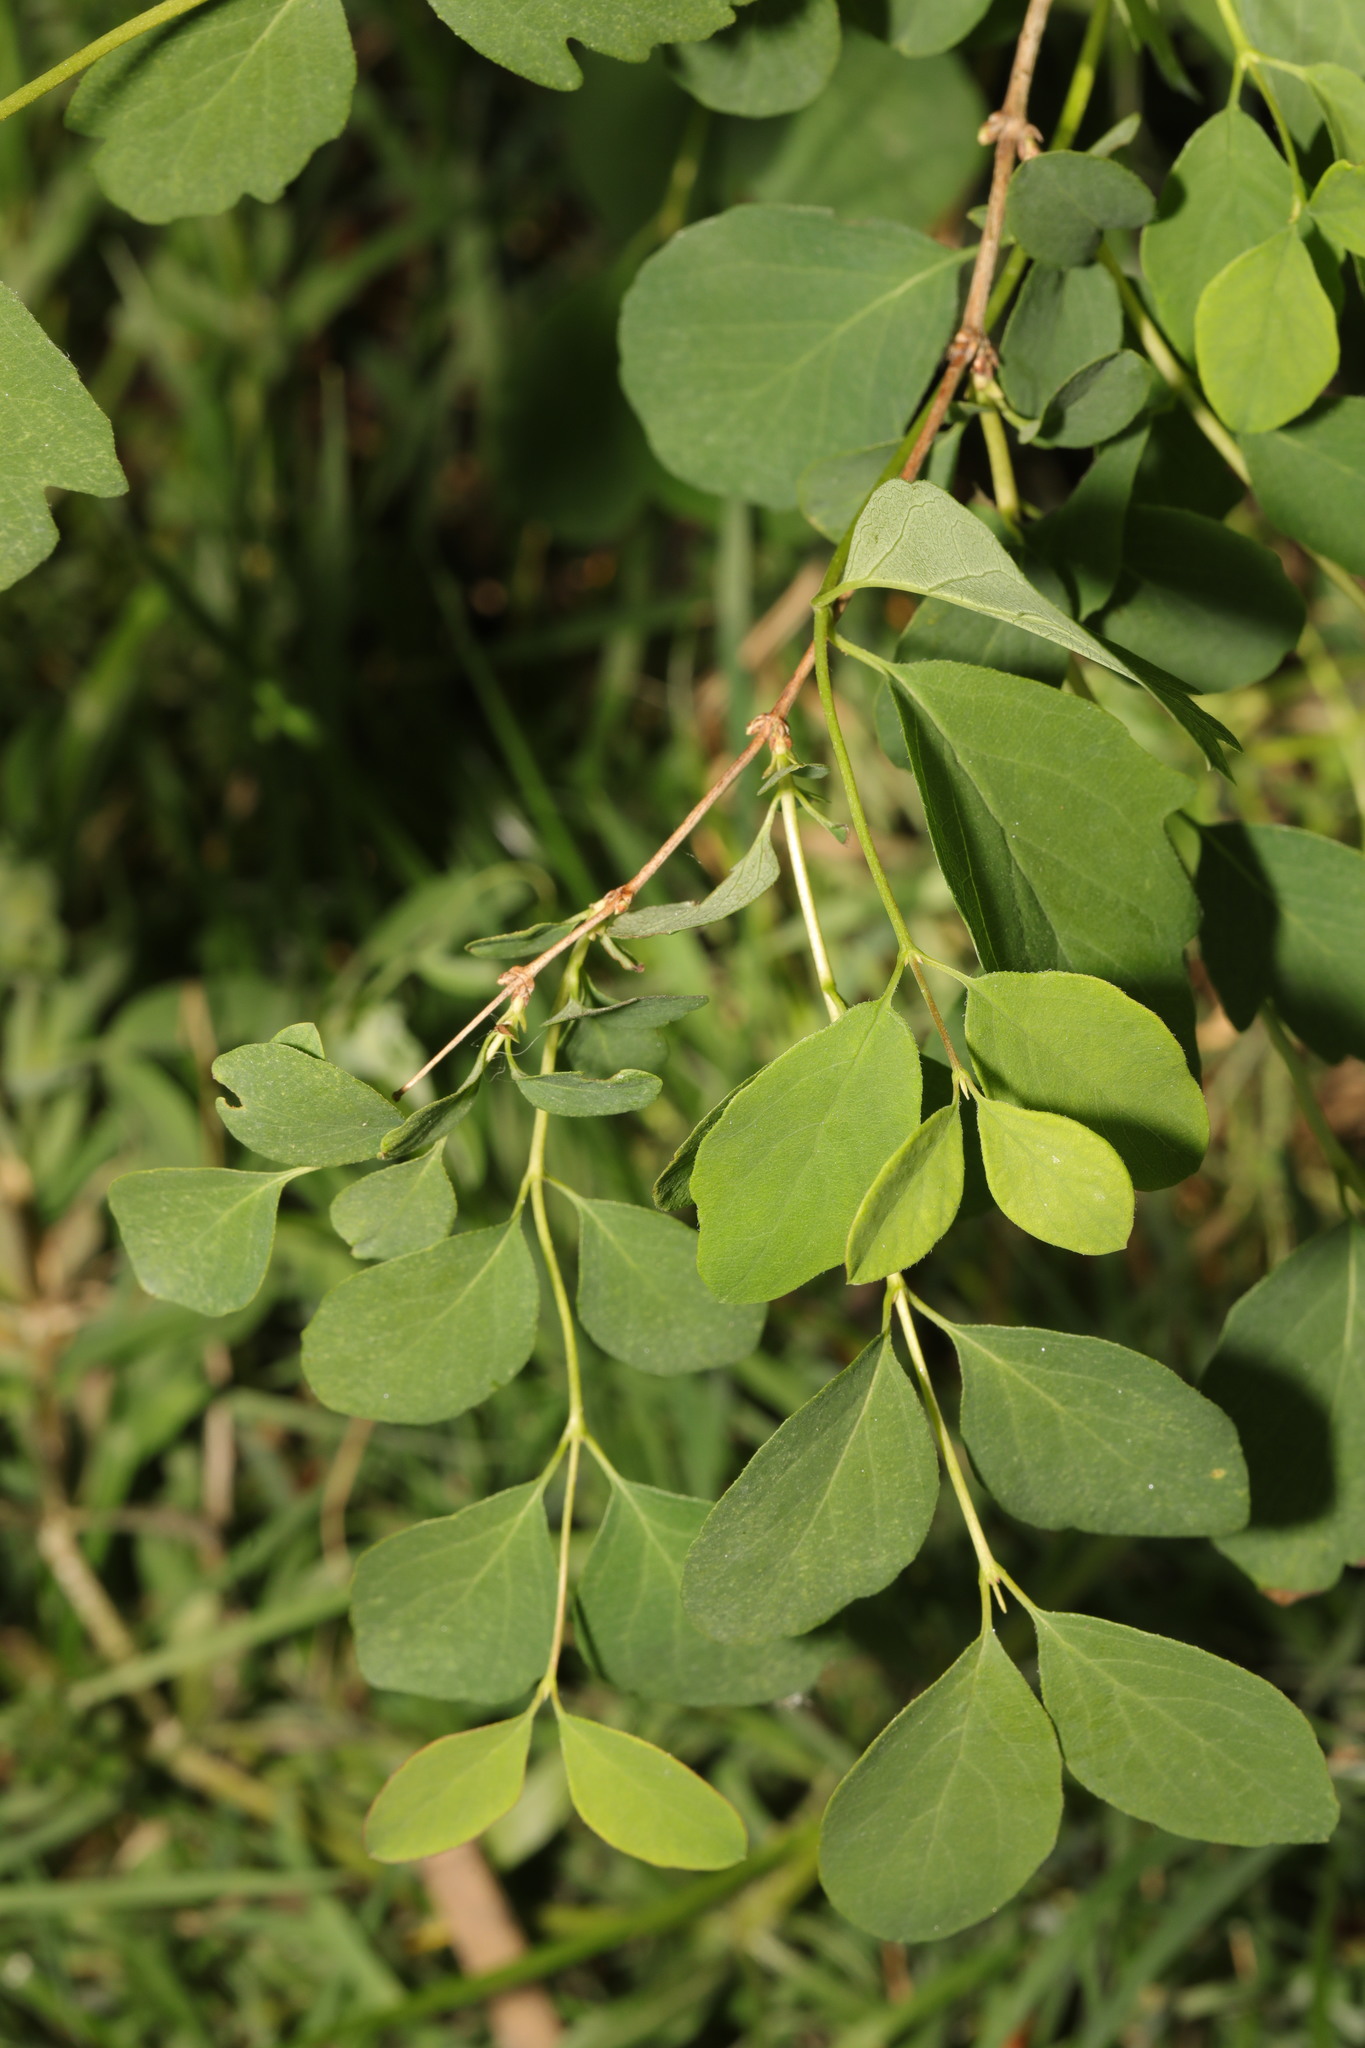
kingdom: Plantae
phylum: Tracheophyta
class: Magnoliopsida
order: Dipsacales
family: Caprifoliaceae
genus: Symphoricarpos
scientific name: Symphoricarpos albus
